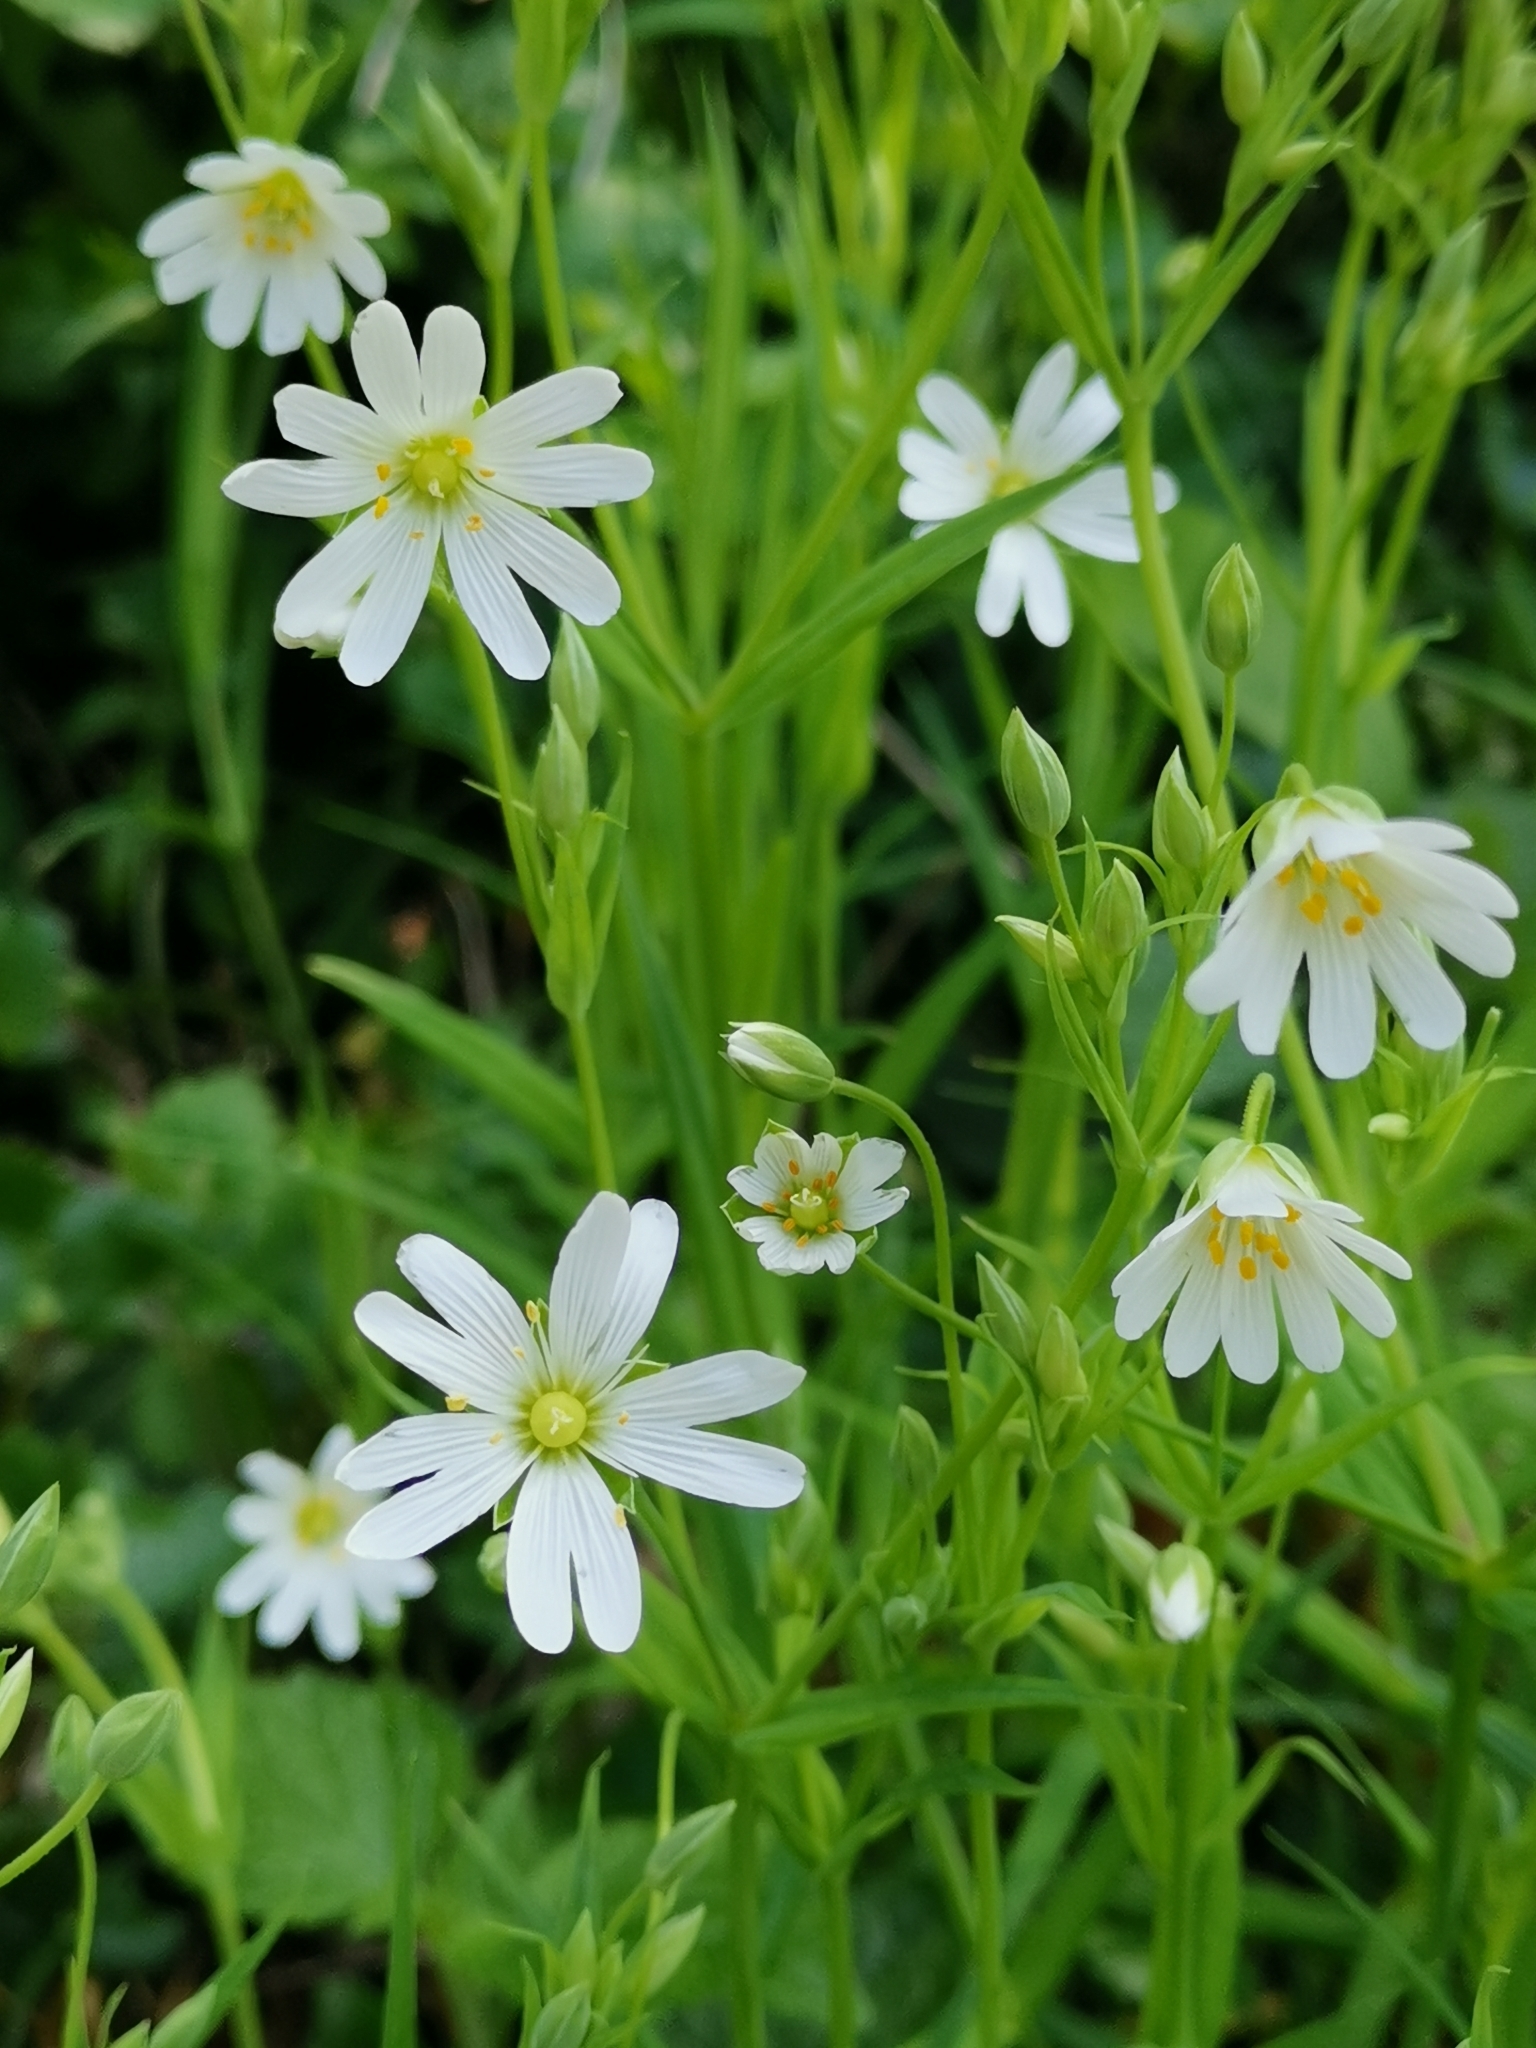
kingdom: Plantae
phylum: Tracheophyta
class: Magnoliopsida
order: Caryophyllales
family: Caryophyllaceae
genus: Rabelera
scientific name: Rabelera holostea
